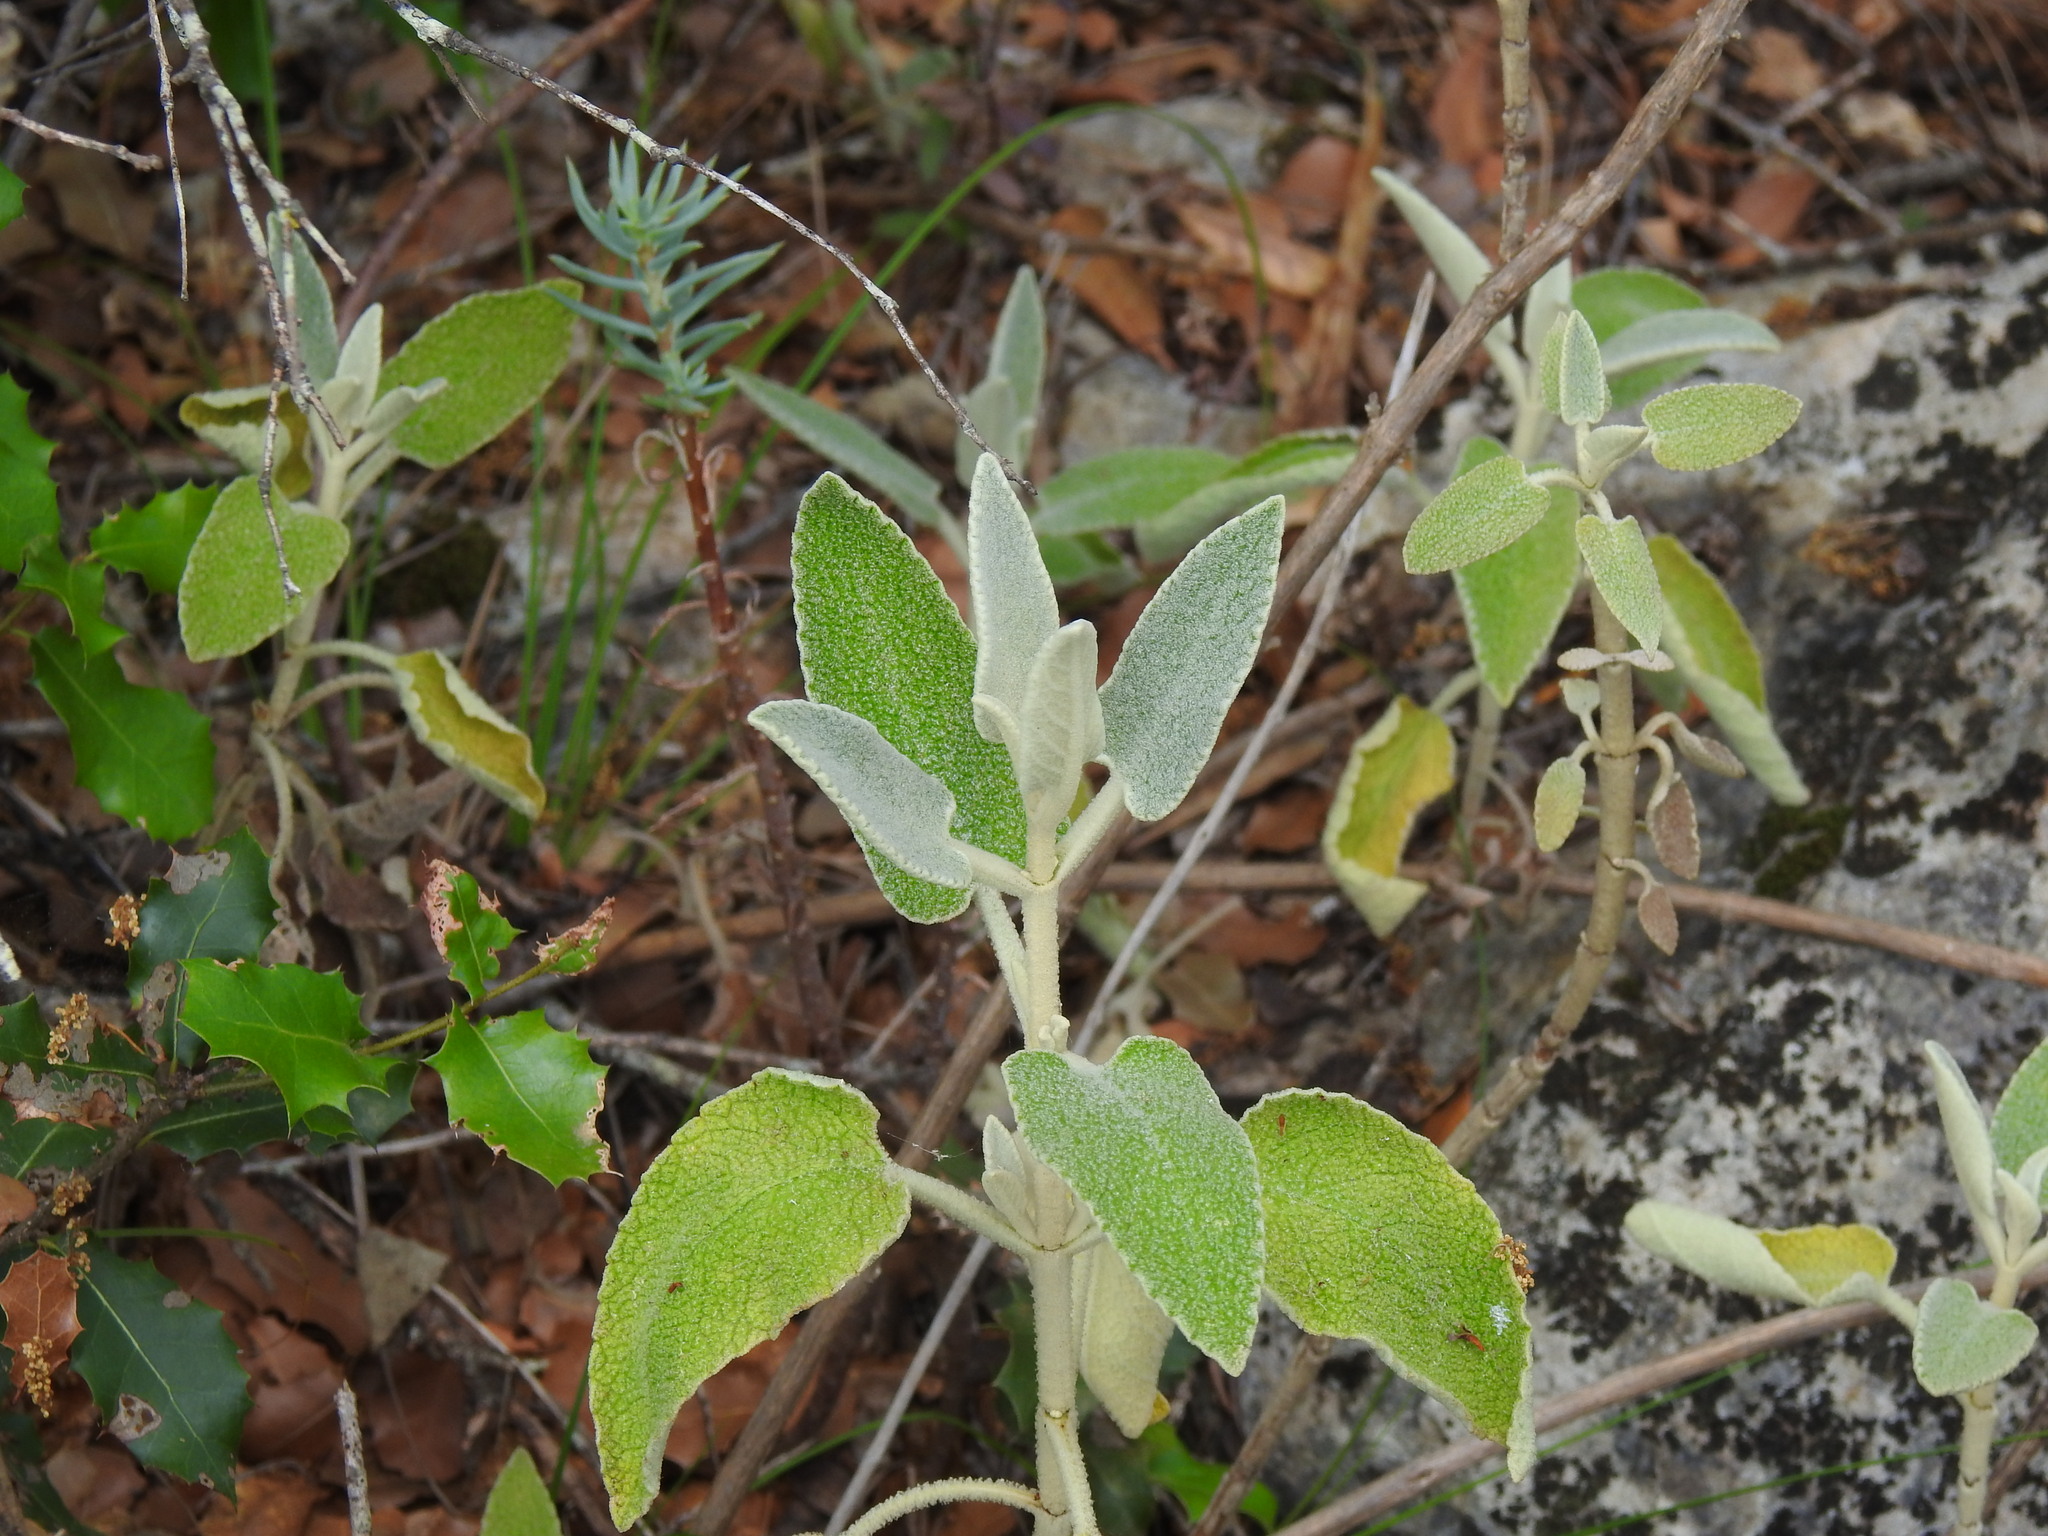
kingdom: Plantae
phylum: Tracheophyta
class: Magnoliopsida
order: Lamiales
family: Lamiaceae
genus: Phlomis
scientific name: Phlomis purpurea
